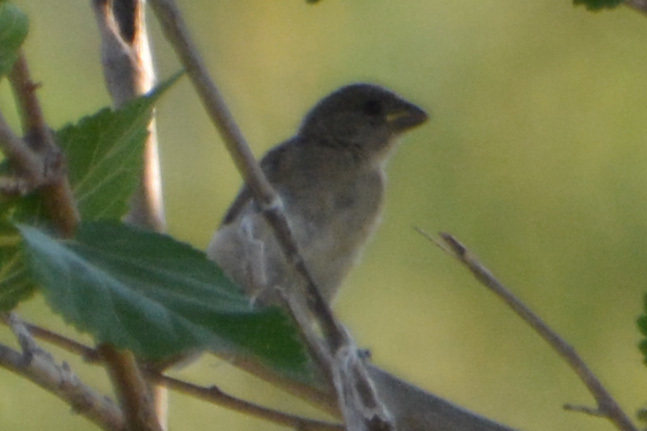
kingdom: Animalia
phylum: Chordata
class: Aves
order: Passeriformes
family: Thraupidae
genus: Sporophila
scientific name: Sporophila caerulescens
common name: Double-collared seedeater
